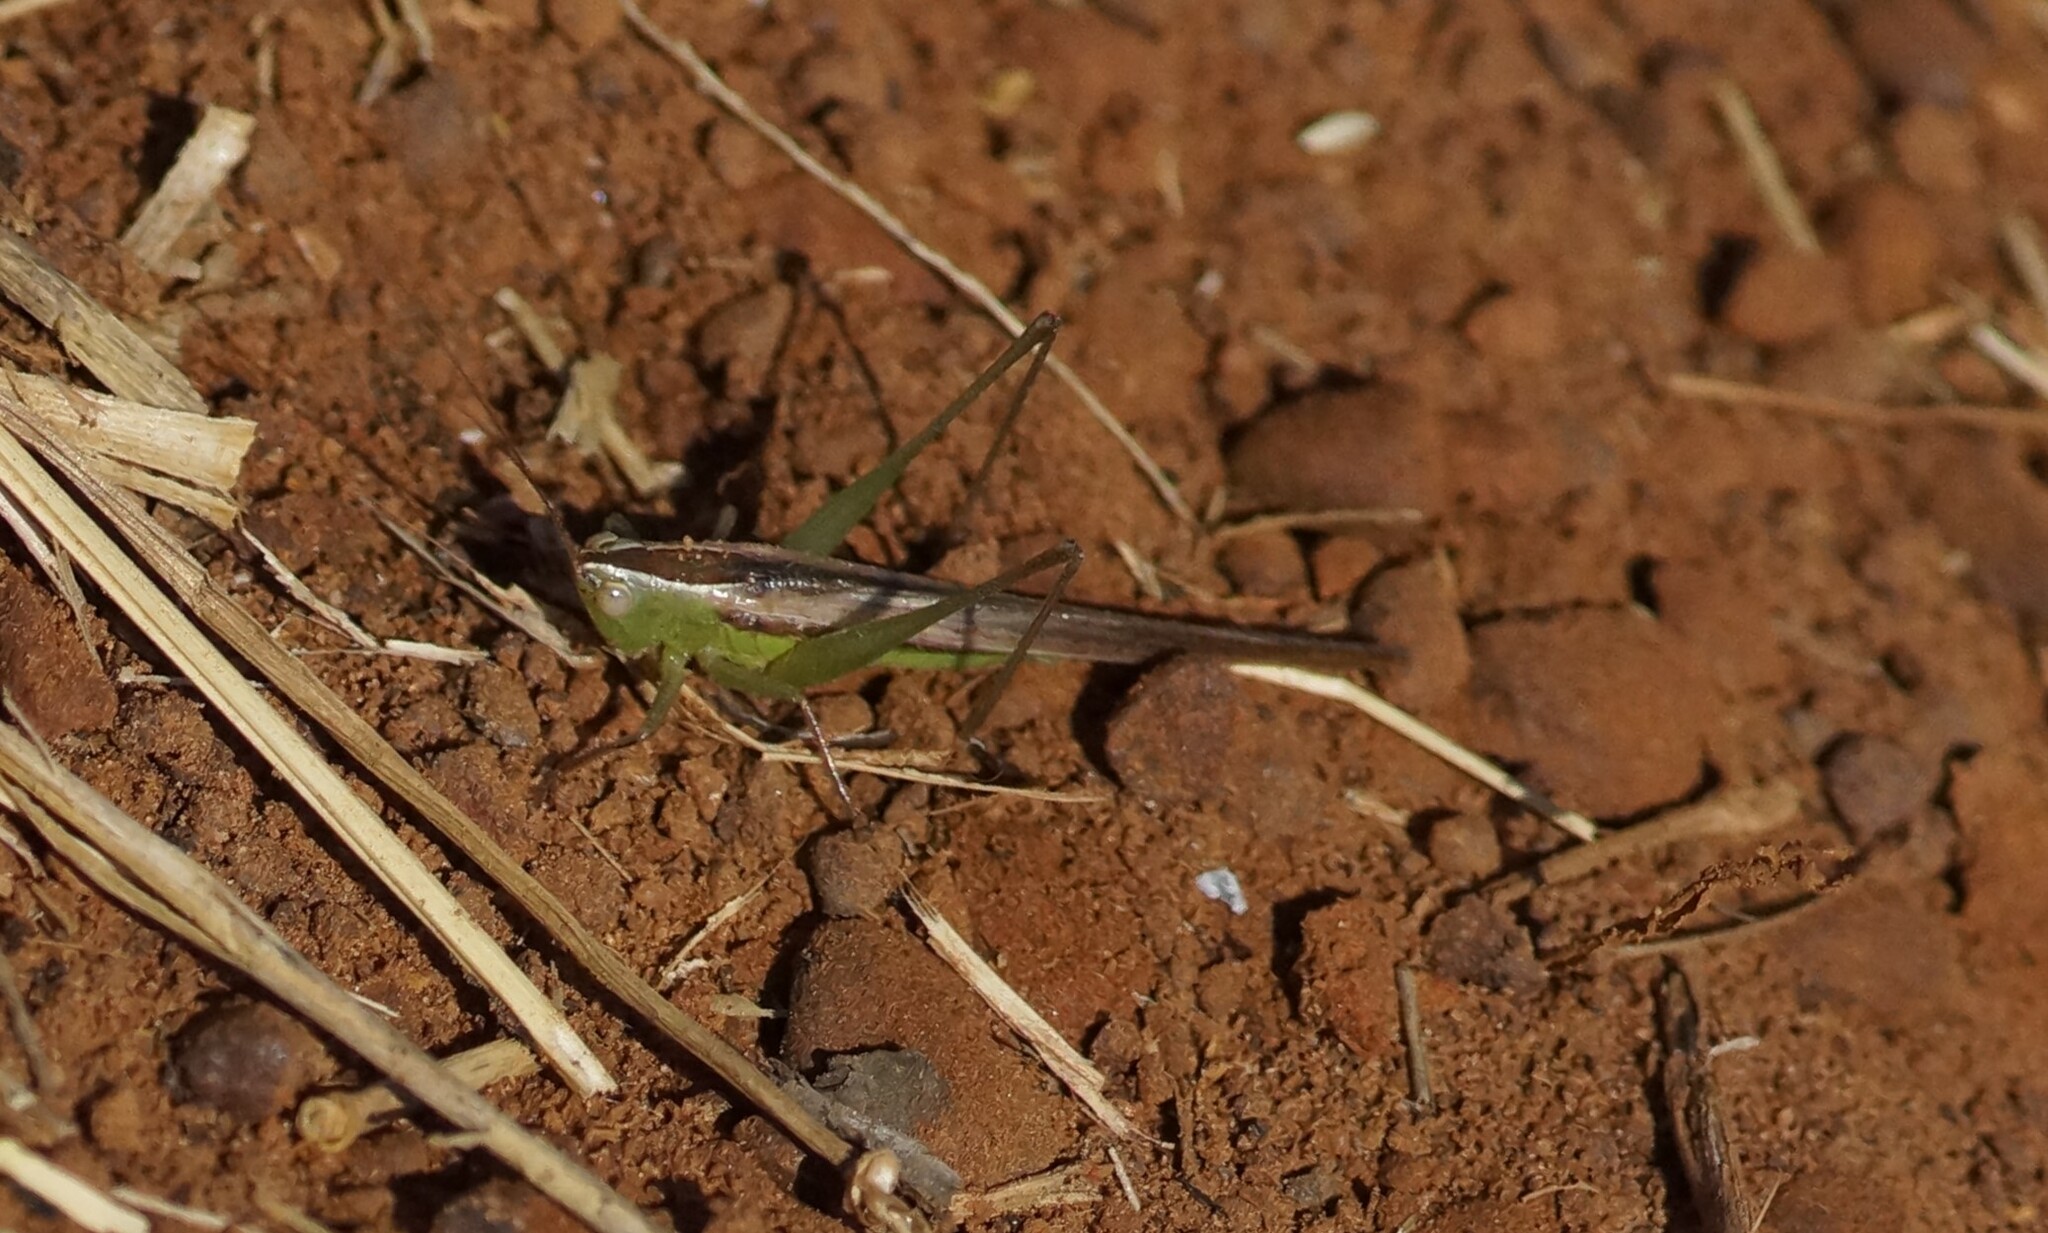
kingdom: Animalia
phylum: Arthropoda
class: Insecta
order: Orthoptera
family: Tettigoniidae
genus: Conocephalus
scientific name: Conocephalus upoluensis
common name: Upolu meadow katydid
